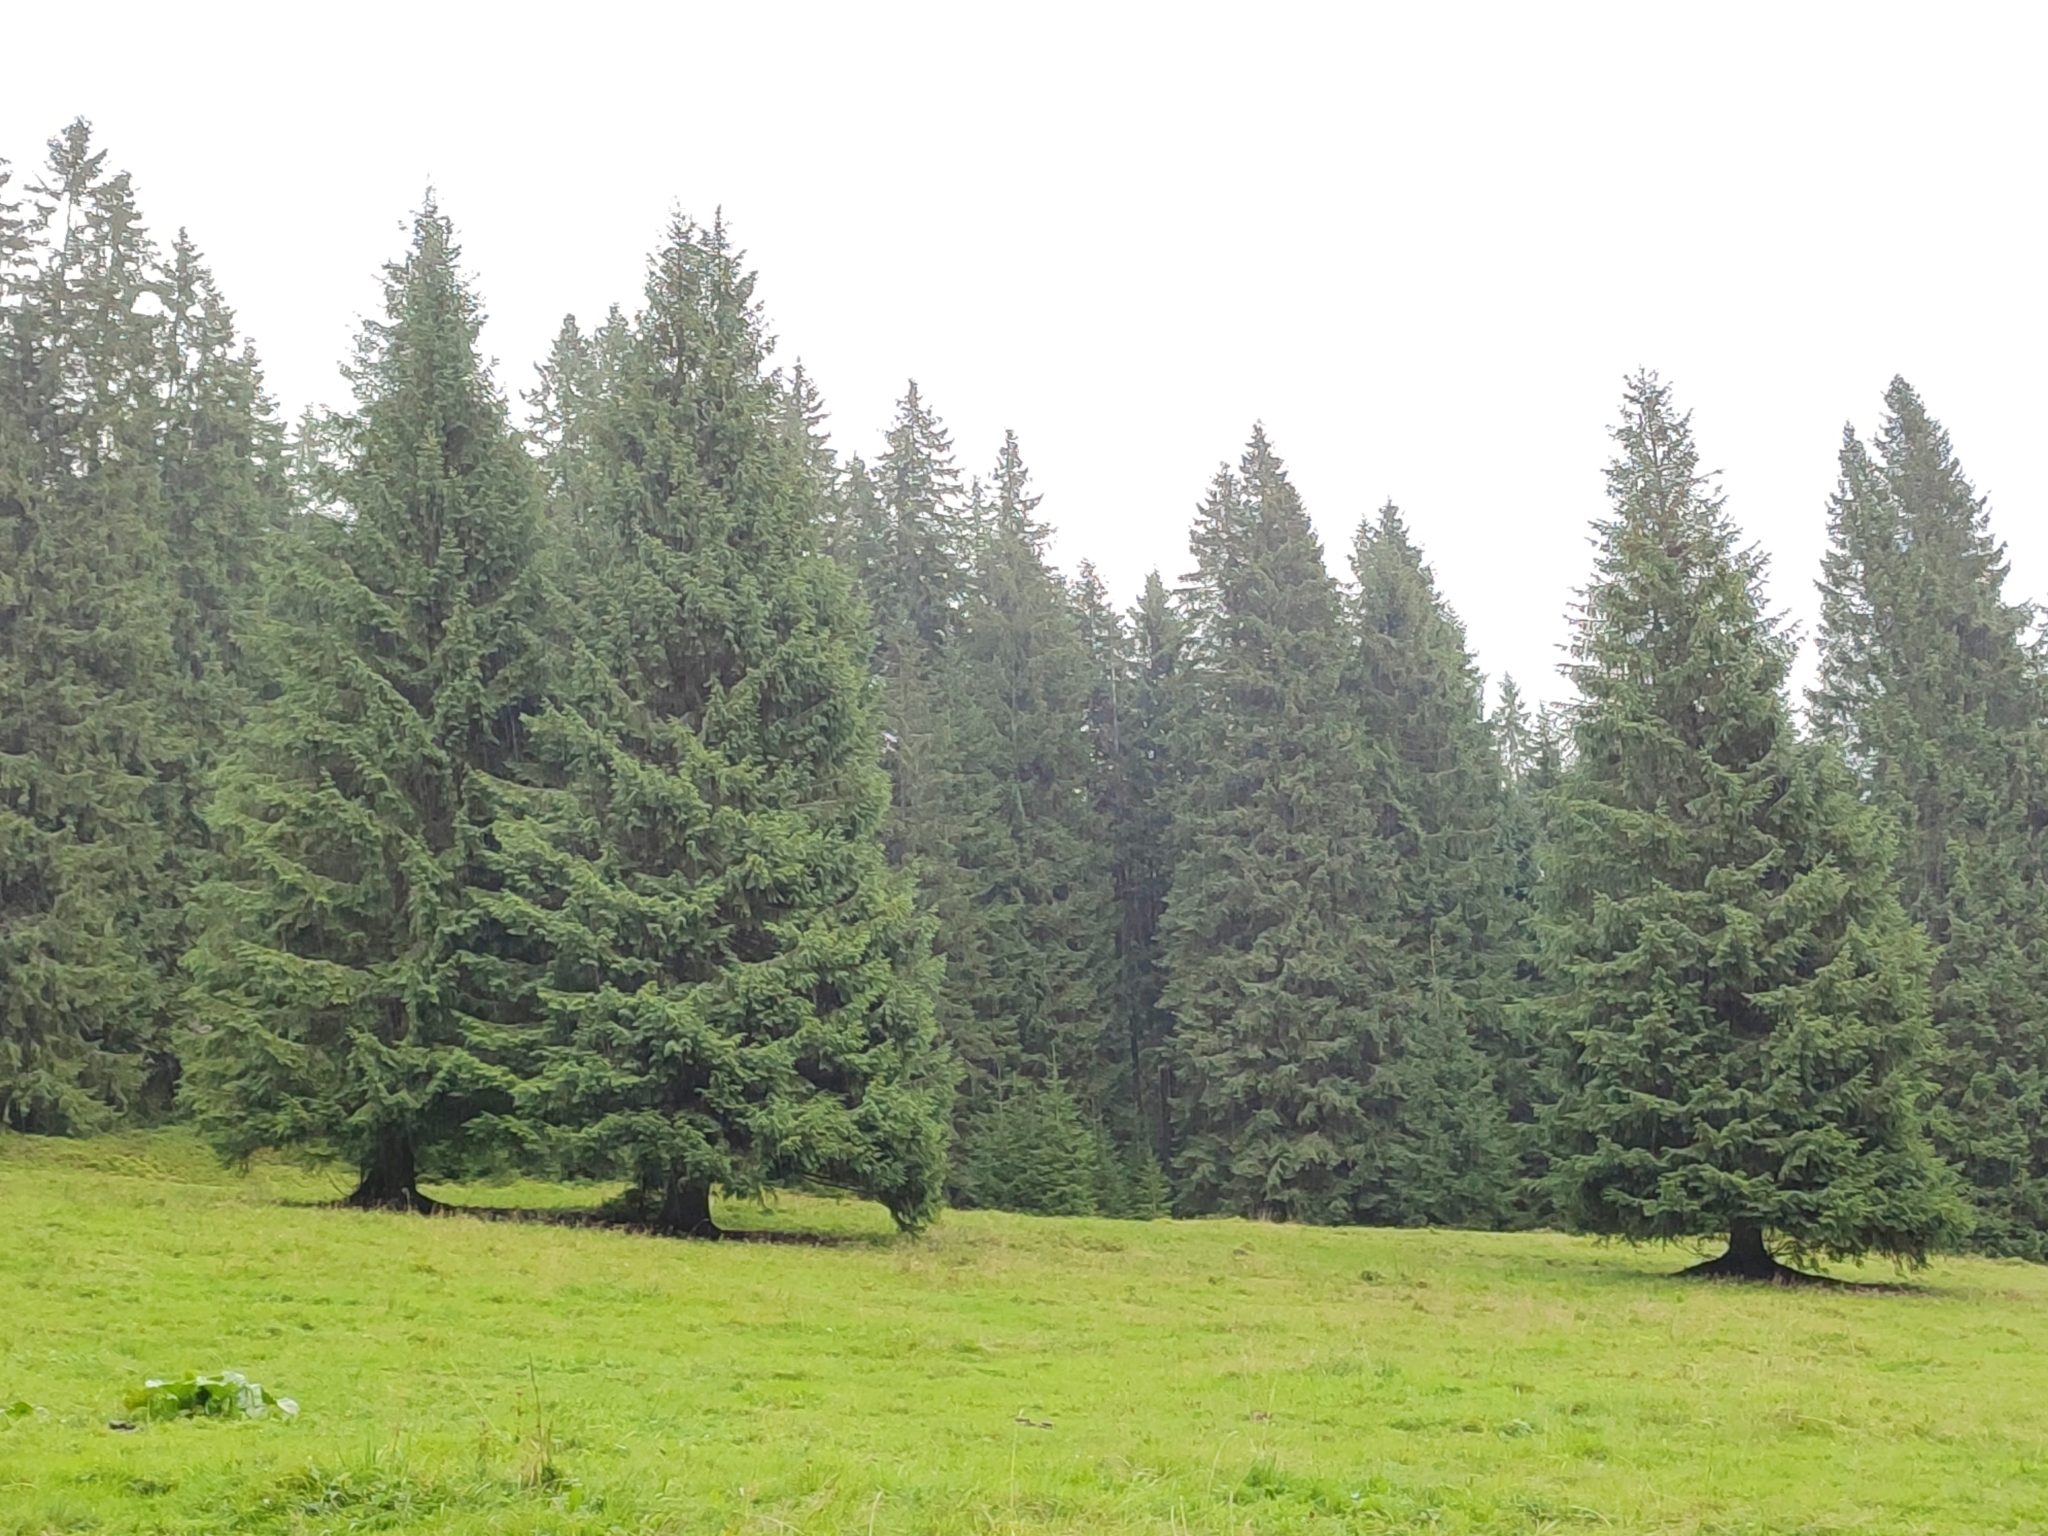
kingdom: Plantae
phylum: Tracheophyta
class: Pinopsida
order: Pinales
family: Pinaceae
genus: Picea
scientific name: Picea abies
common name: Norway spruce
